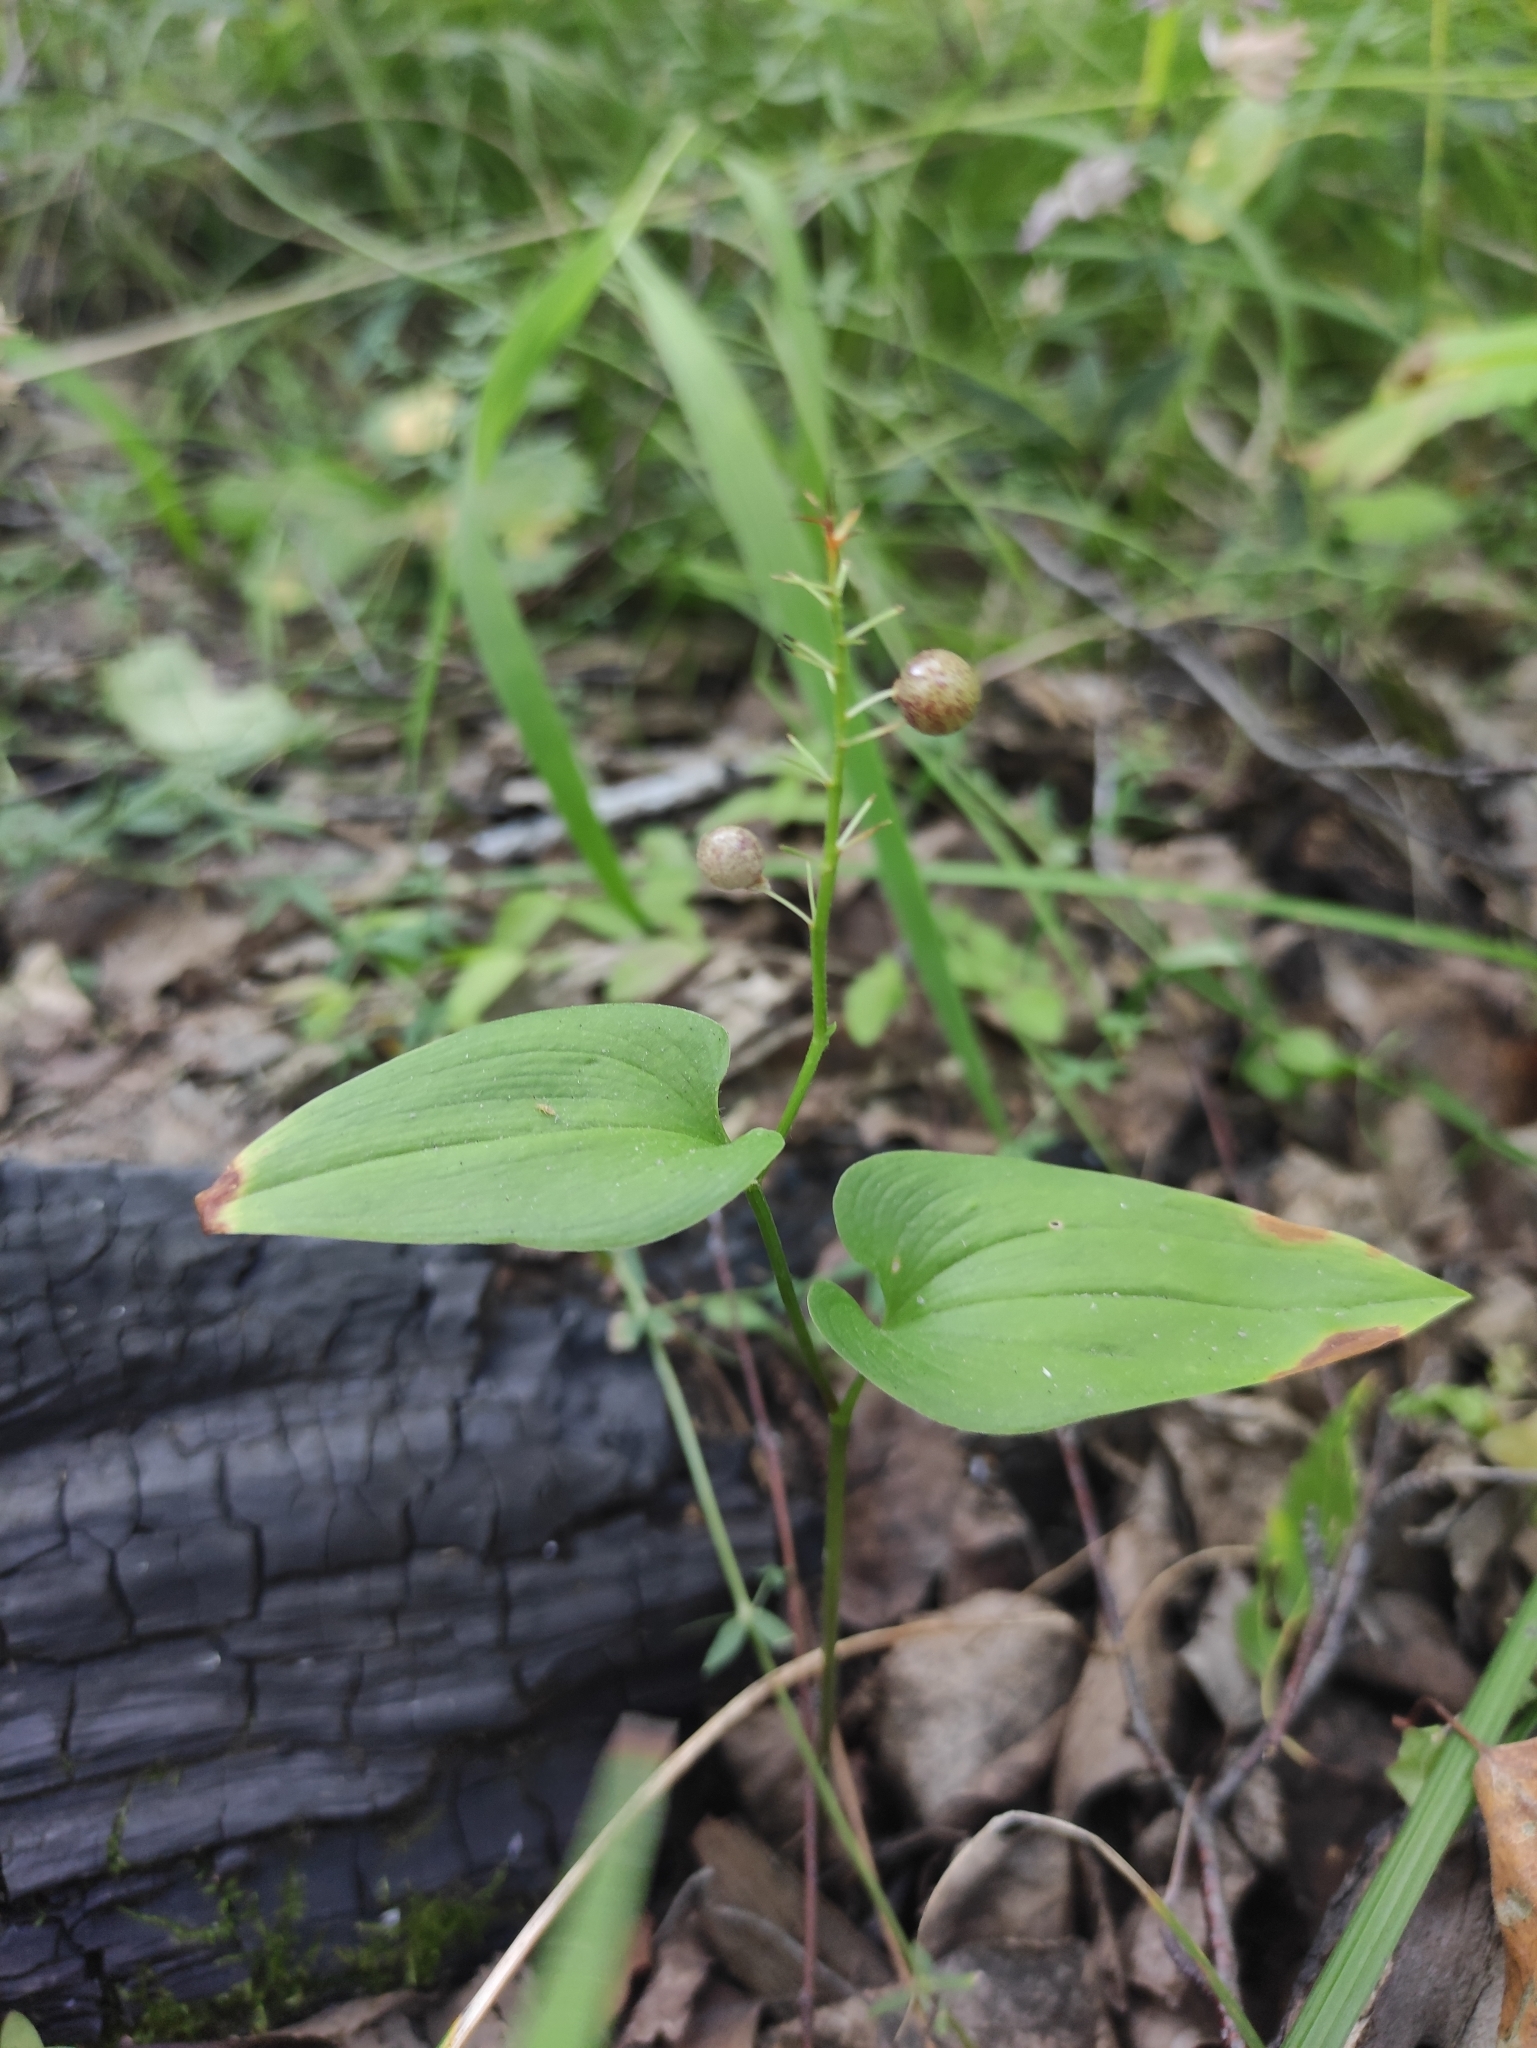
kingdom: Plantae
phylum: Tracheophyta
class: Liliopsida
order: Asparagales
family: Asparagaceae
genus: Maianthemum
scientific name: Maianthemum bifolium
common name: May lily
